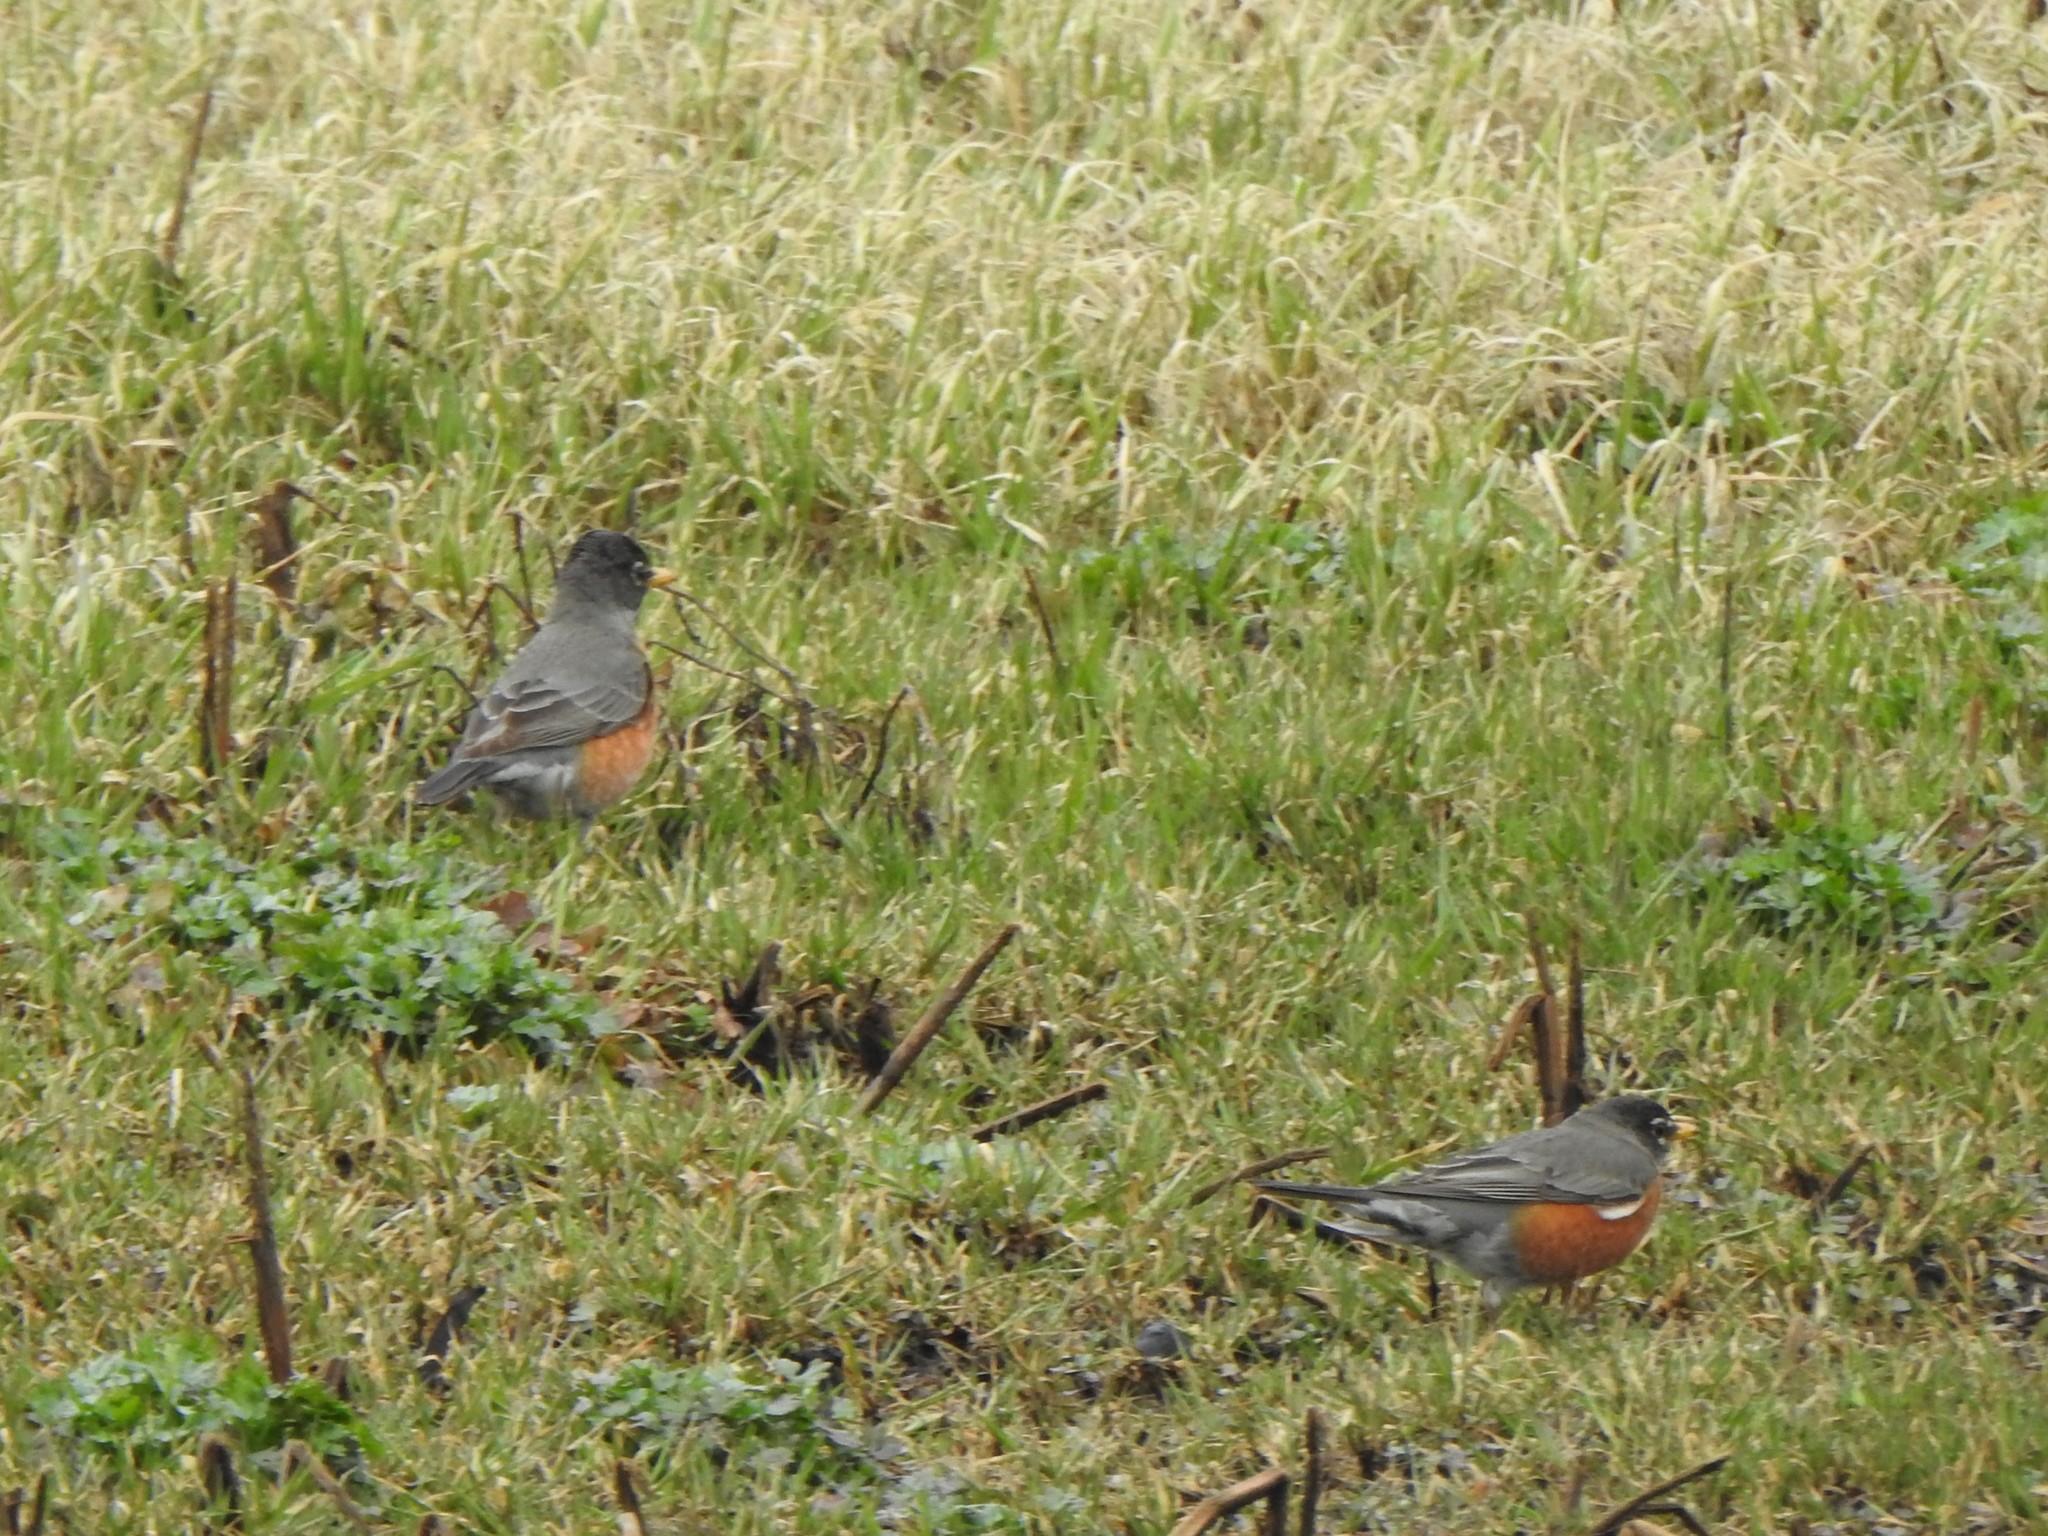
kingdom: Animalia
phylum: Chordata
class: Aves
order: Passeriformes
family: Turdidae
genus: Turdus
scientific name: Turdus migratorius
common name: American robin
